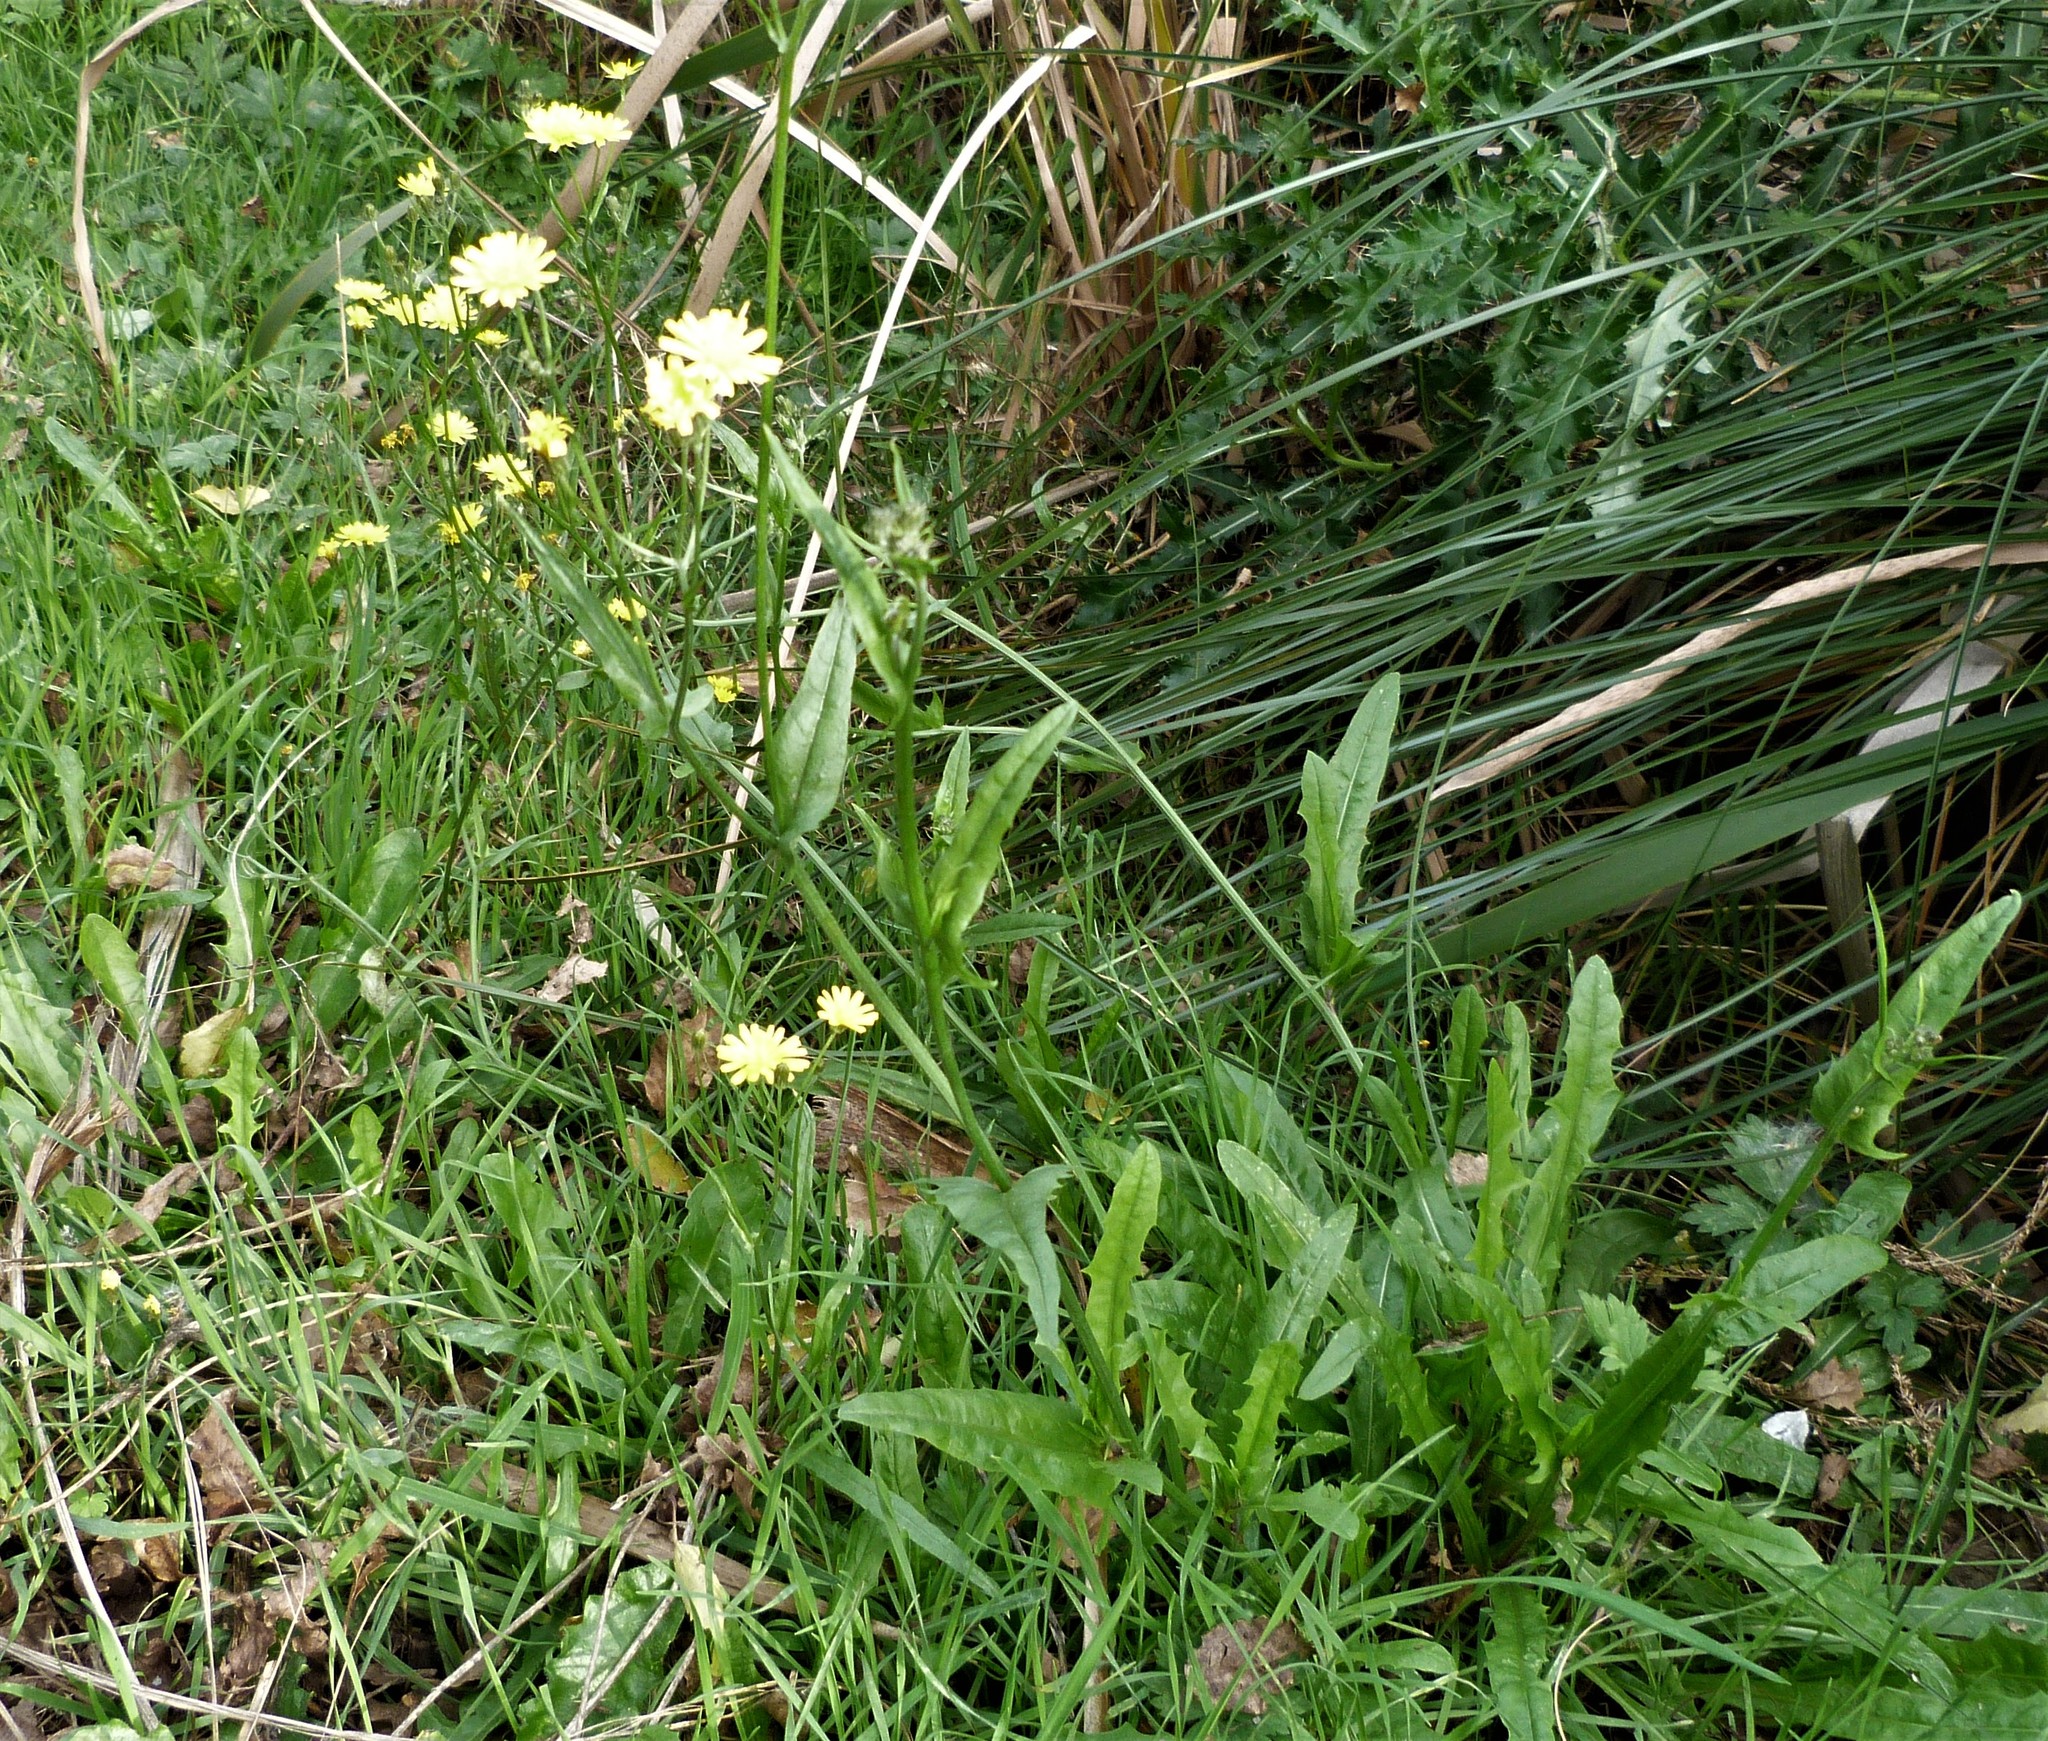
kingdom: Plantae
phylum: Tracheophyta
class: Magnoliopsida
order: Asterales
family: Asteraceae
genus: Crepis
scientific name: Crepis capillaris
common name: Smooth hawksbeard
